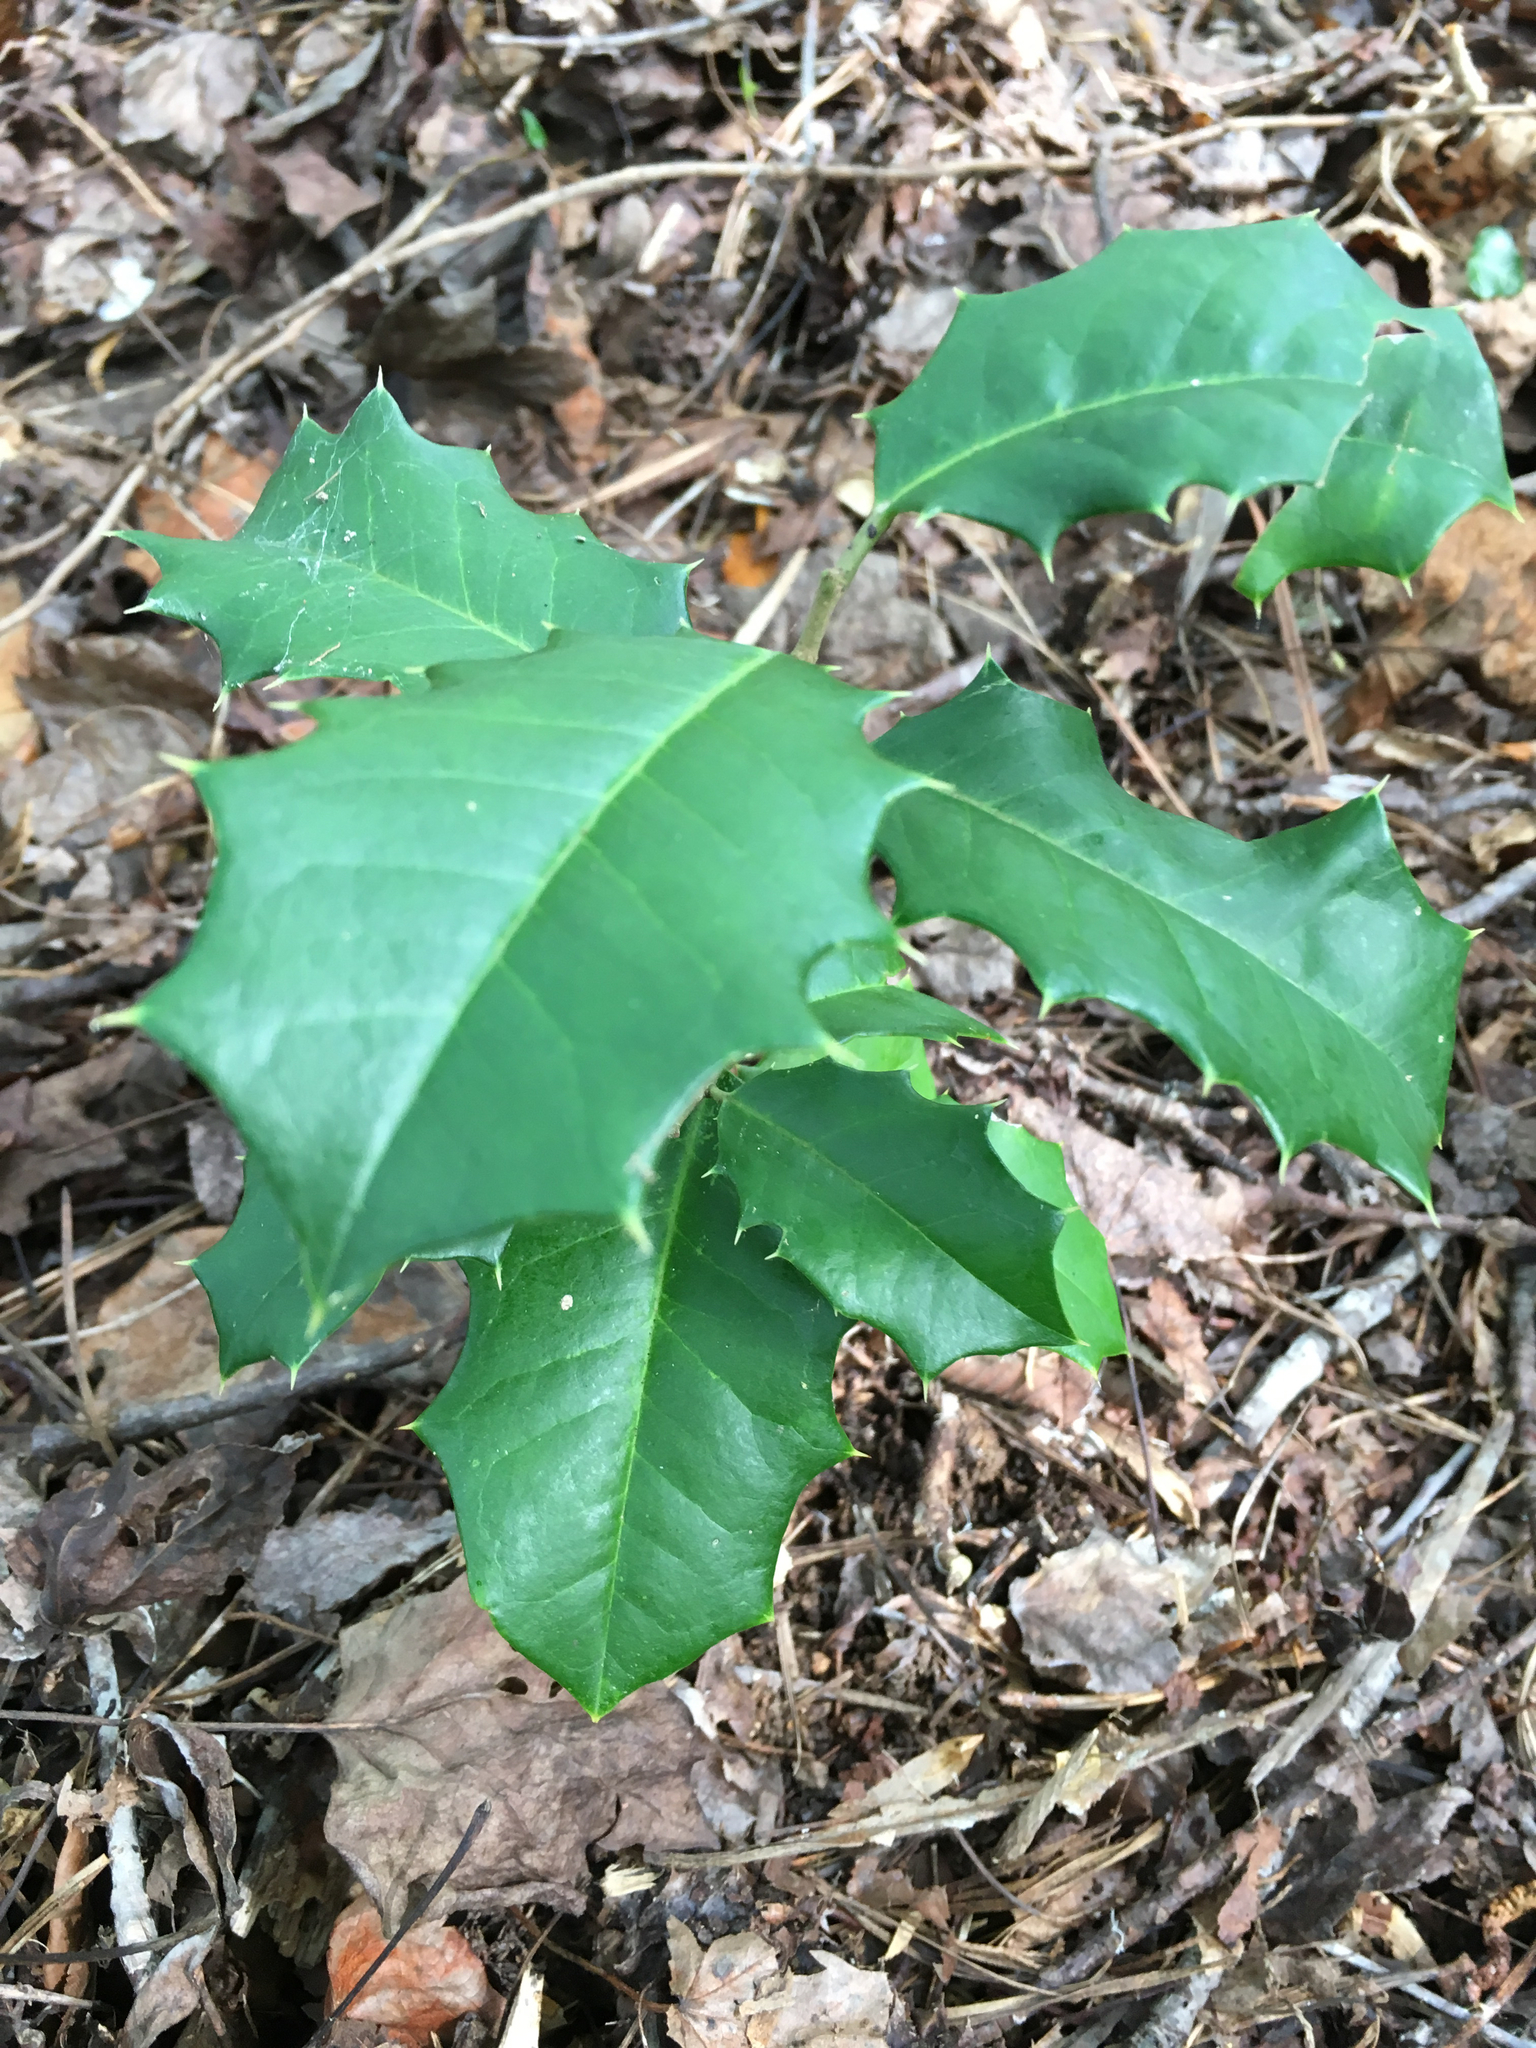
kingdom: Plantae
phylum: Tracheophyta
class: Magnoliopsida
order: Aquifoliales
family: Aquifoliaceae
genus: Ilex
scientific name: Ilex opaca
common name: American holly
